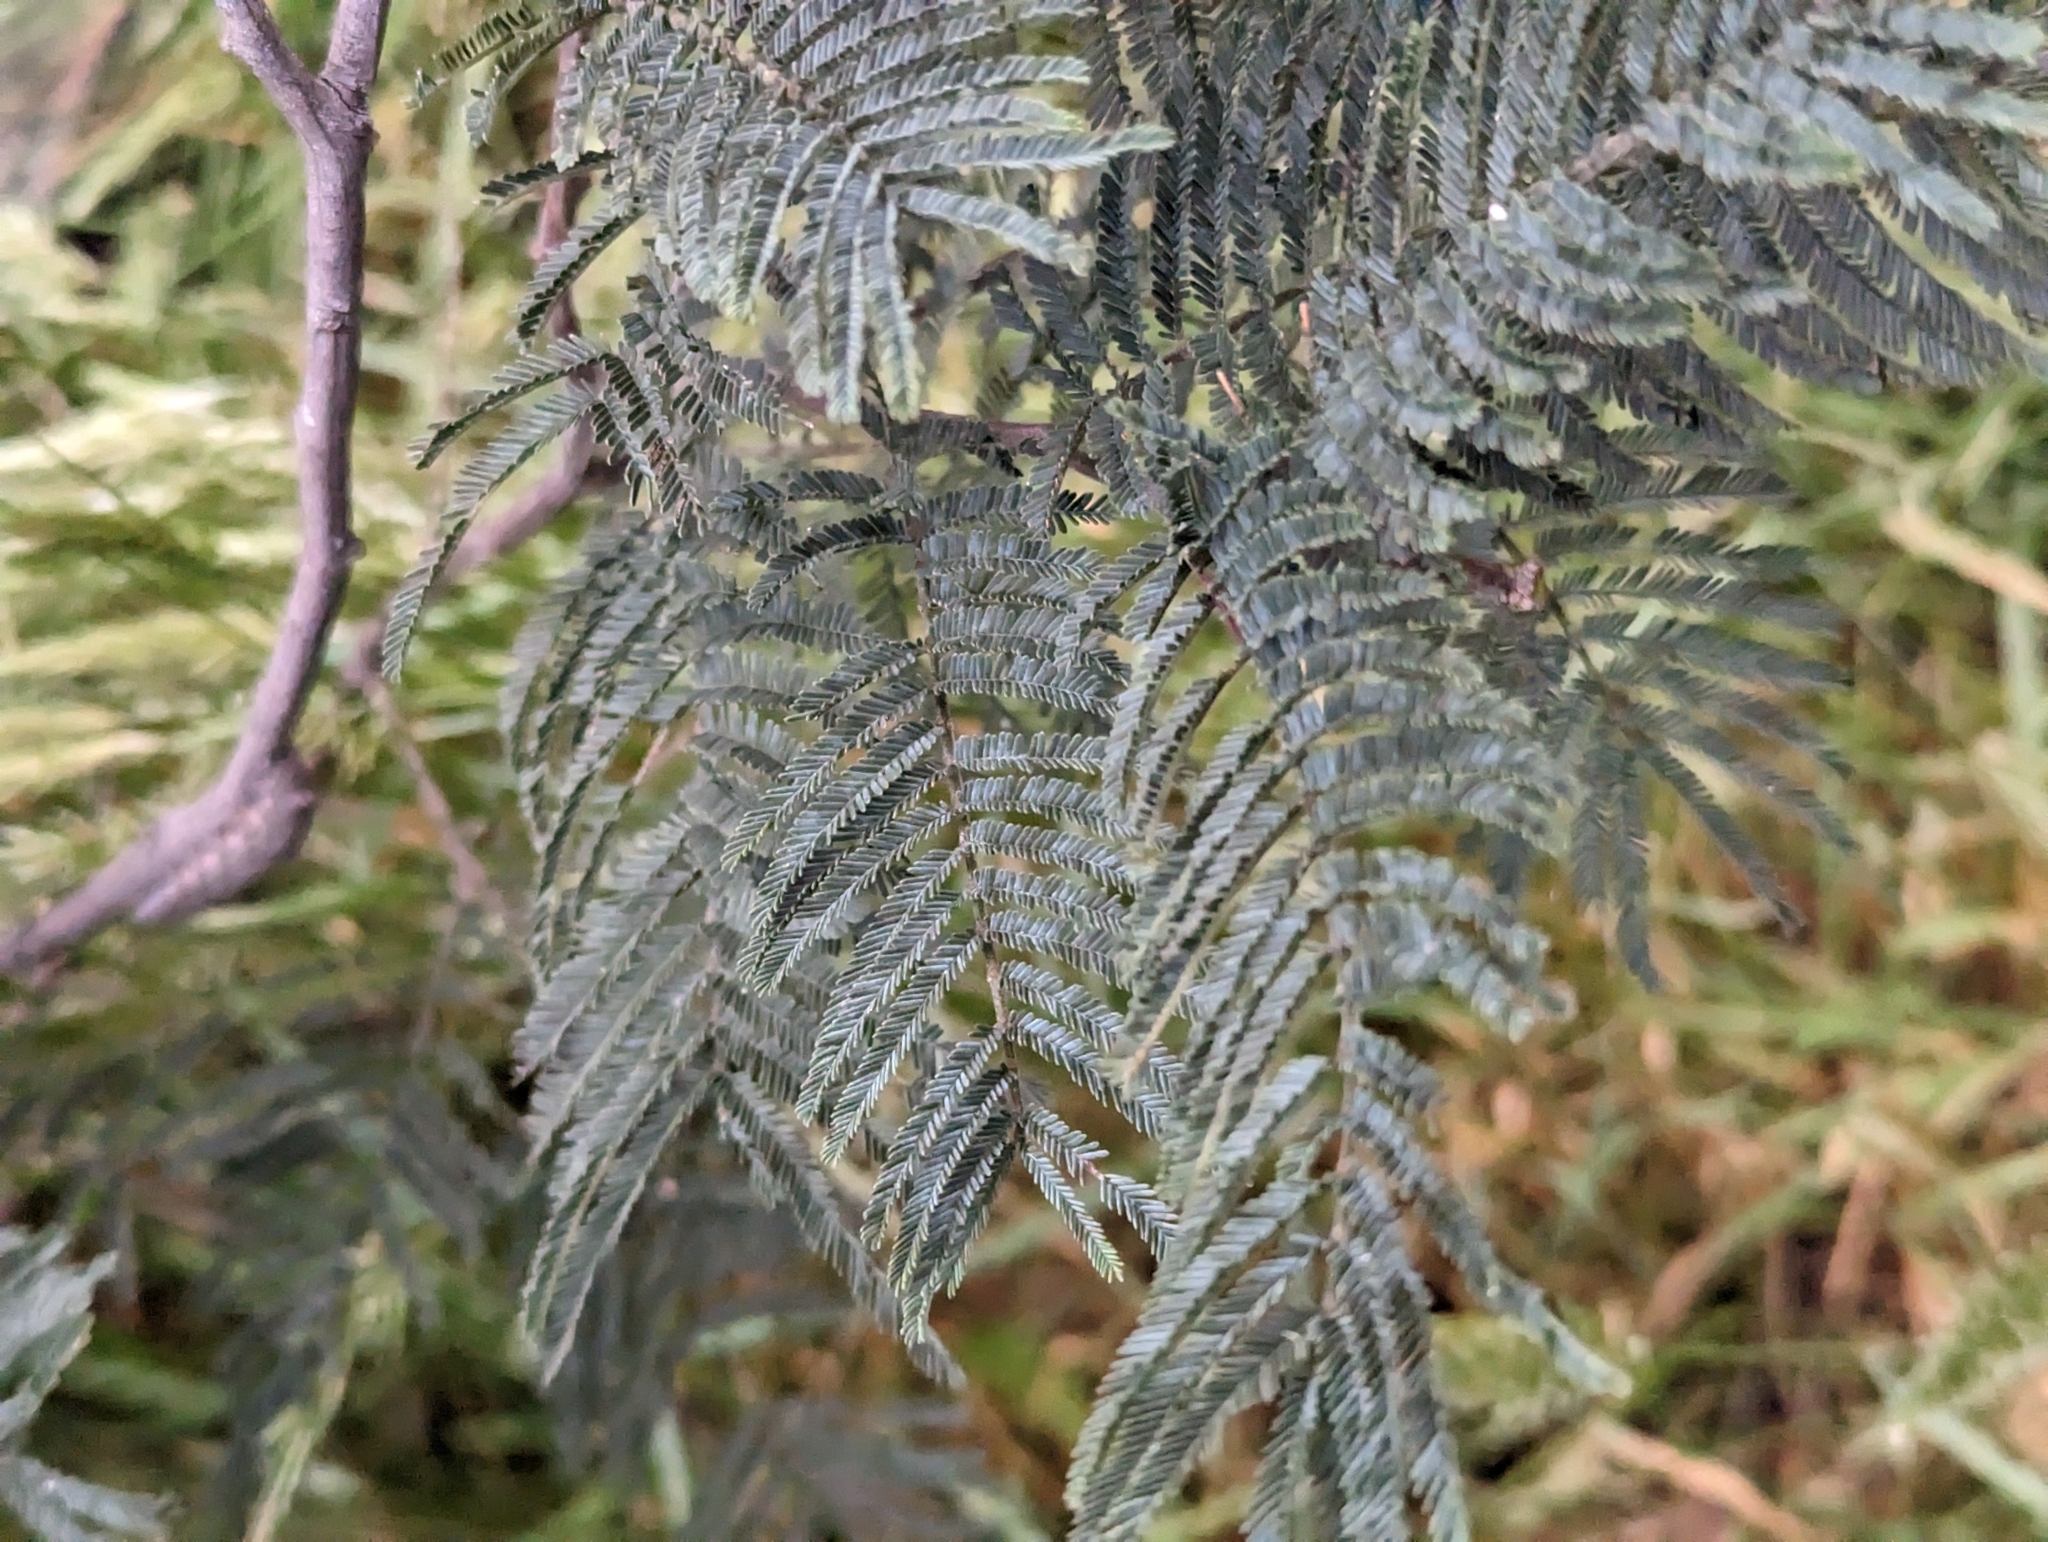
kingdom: Plantae
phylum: Tracheophyta
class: Magnoliopsida
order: Fabales
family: Fabaceae
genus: Acacia
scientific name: Acacia dealbata
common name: Silver wattle
